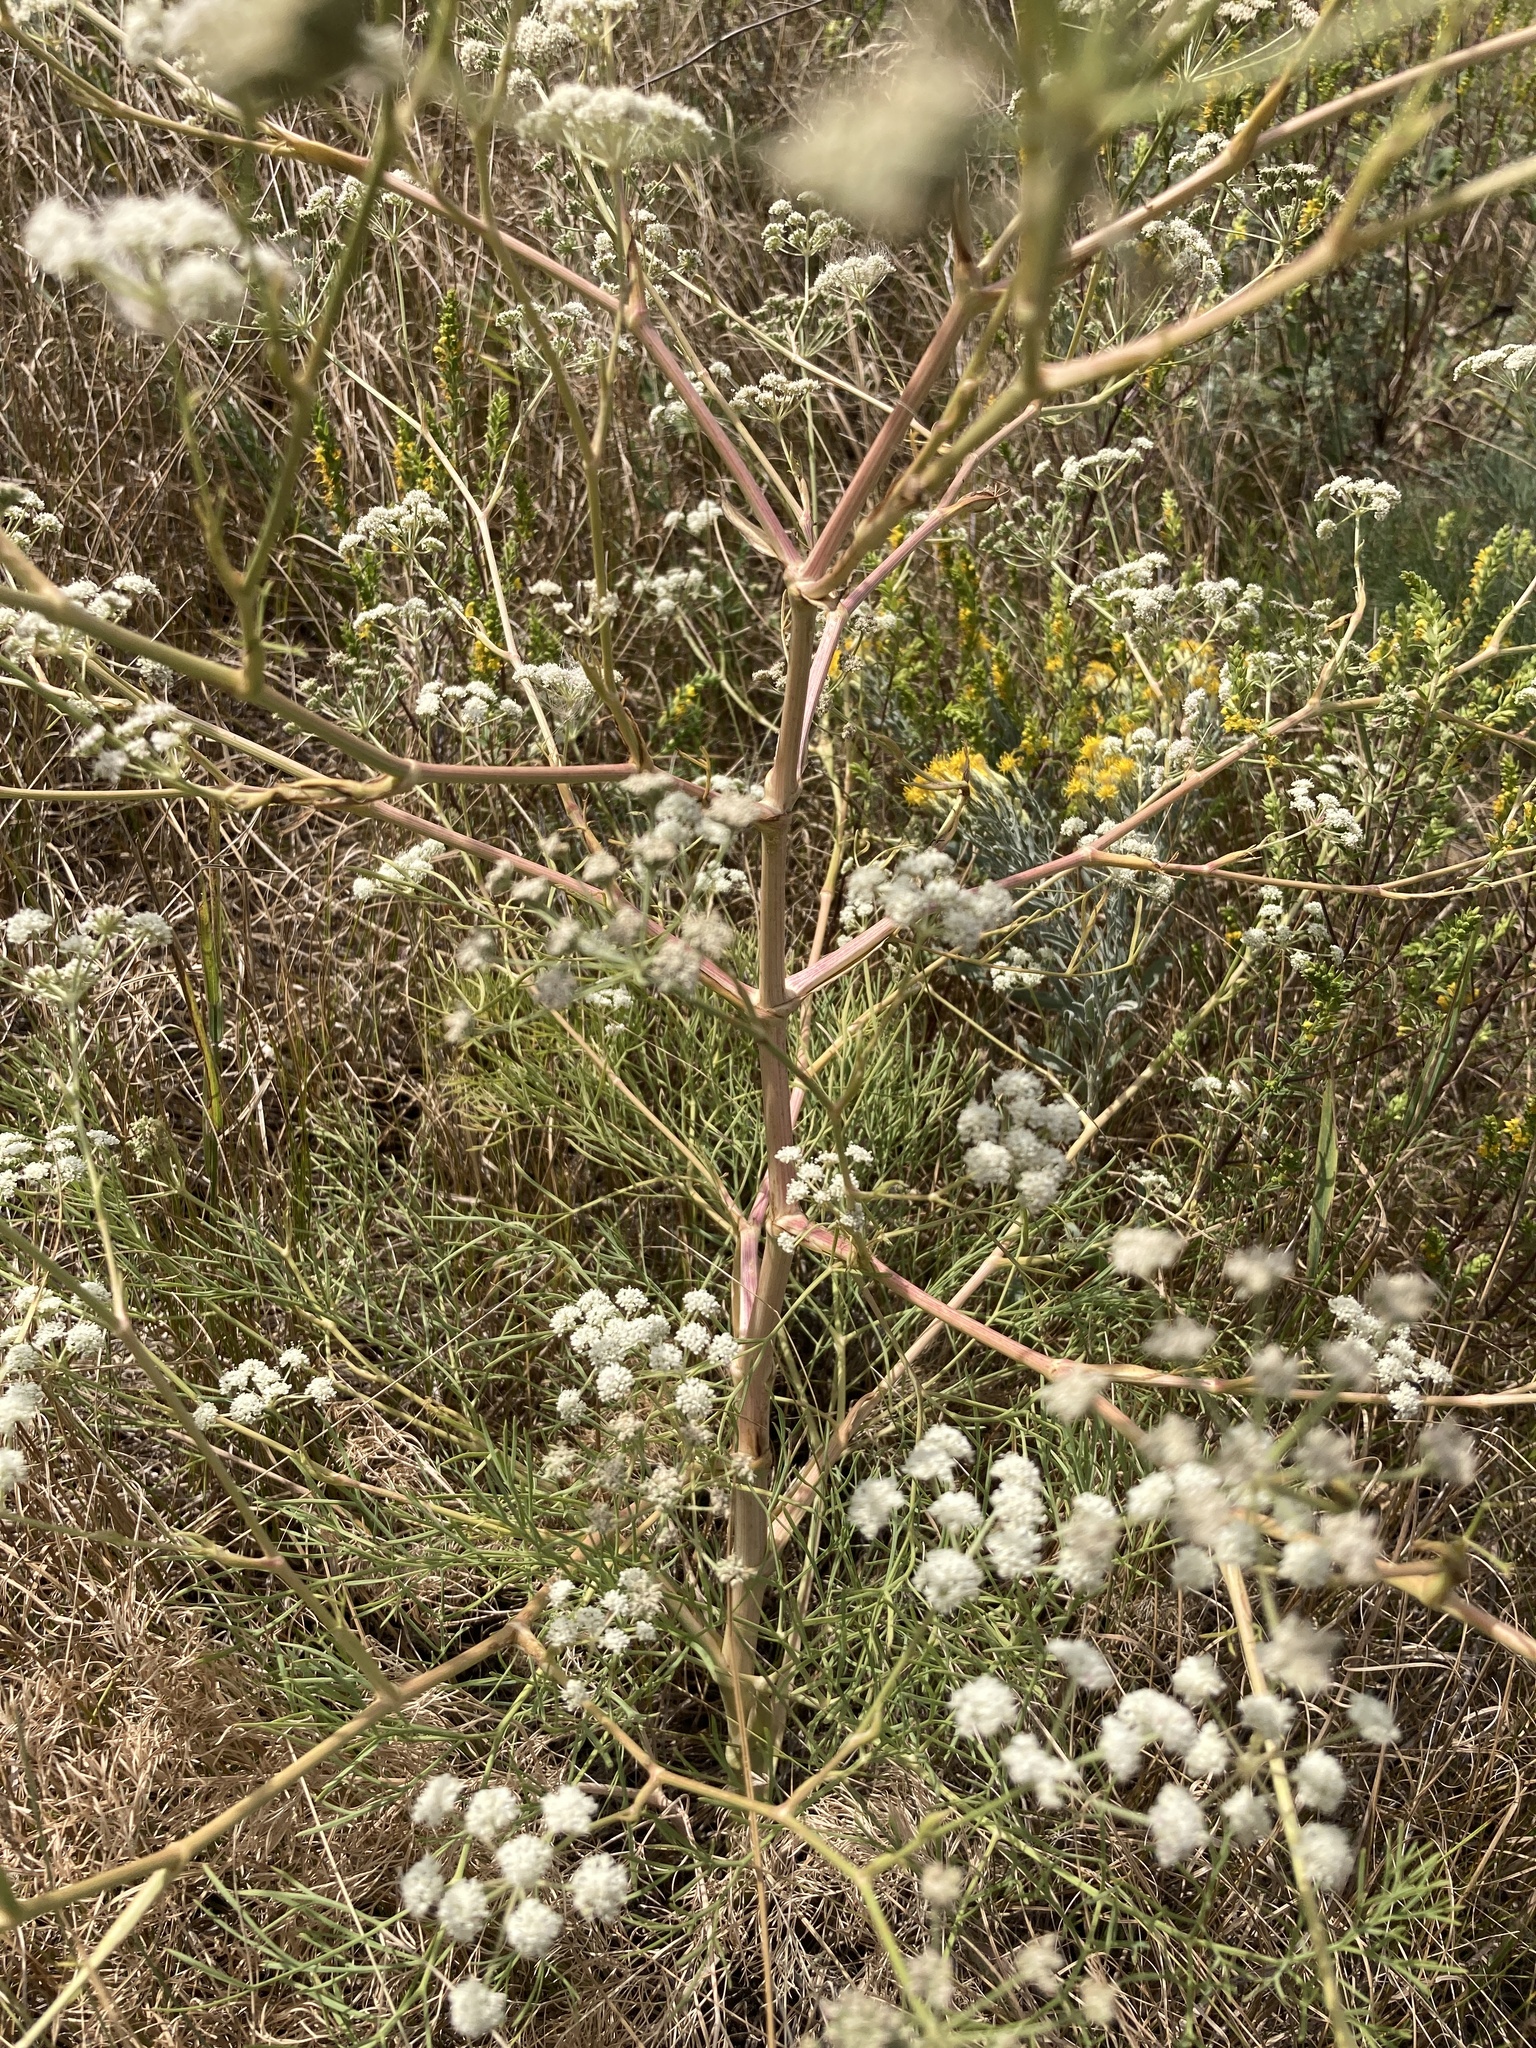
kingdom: Plantae
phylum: Tracheophyta
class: Magnoliopsida
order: Apiales
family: Apiaceae
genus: Seseli
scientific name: Seseli arenarium
